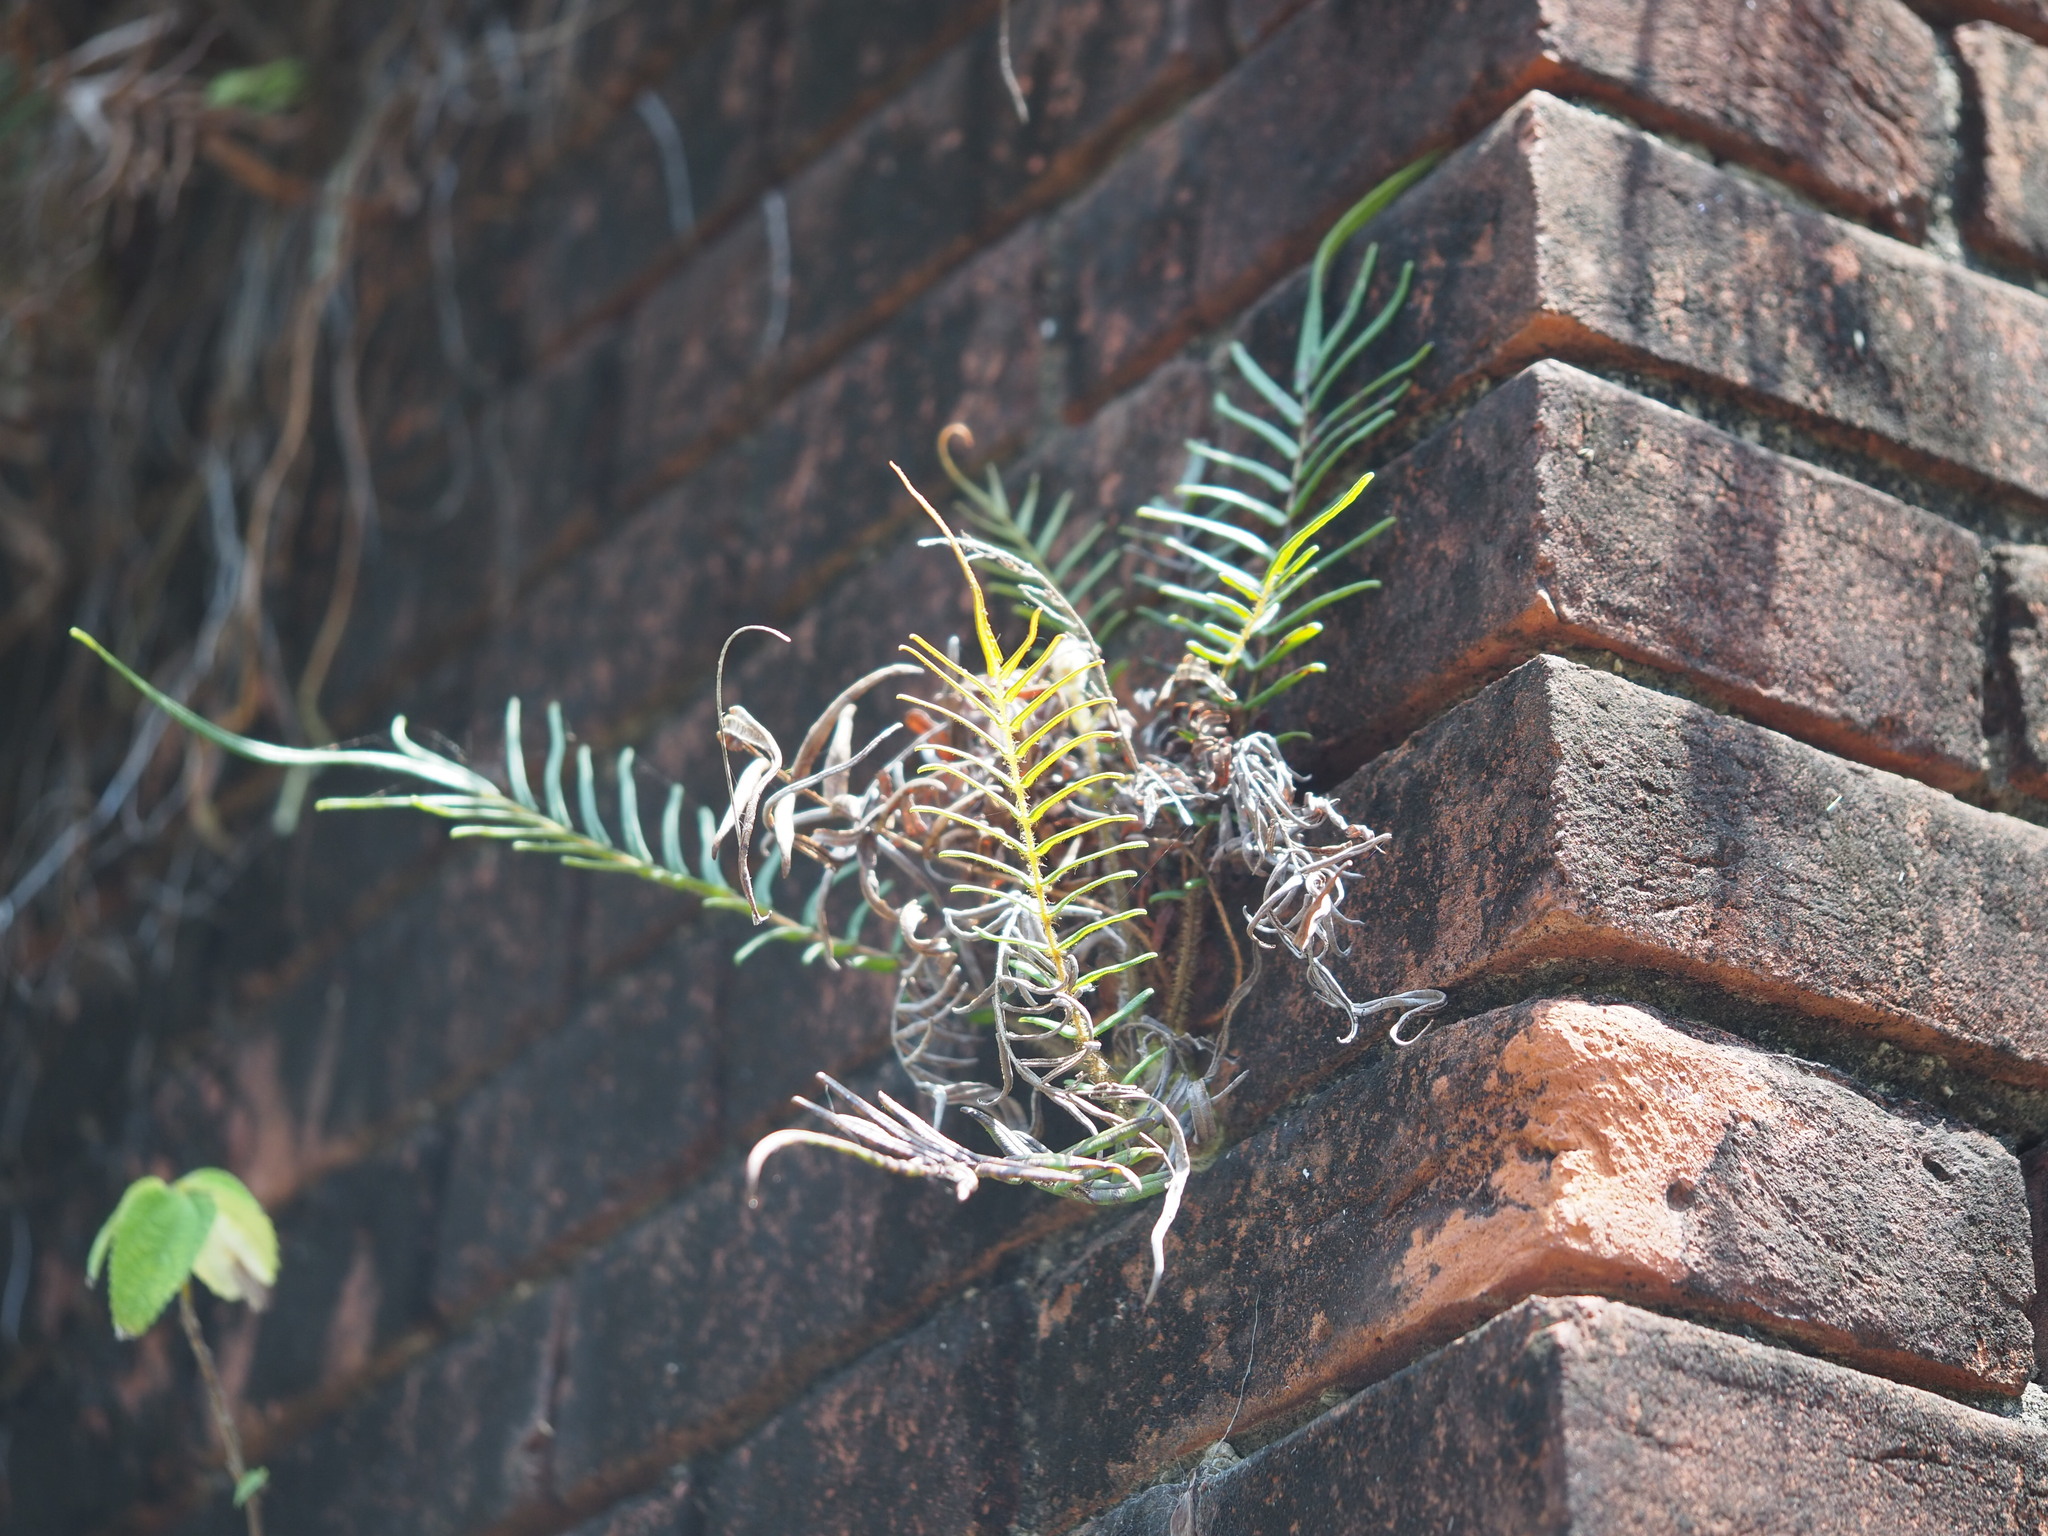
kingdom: Plantae
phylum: Tracheophyta
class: Polypodiopsida
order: Polypodiales
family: Pteridaceae
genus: Pteris
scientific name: Pteris vittata
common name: Ladder brake
